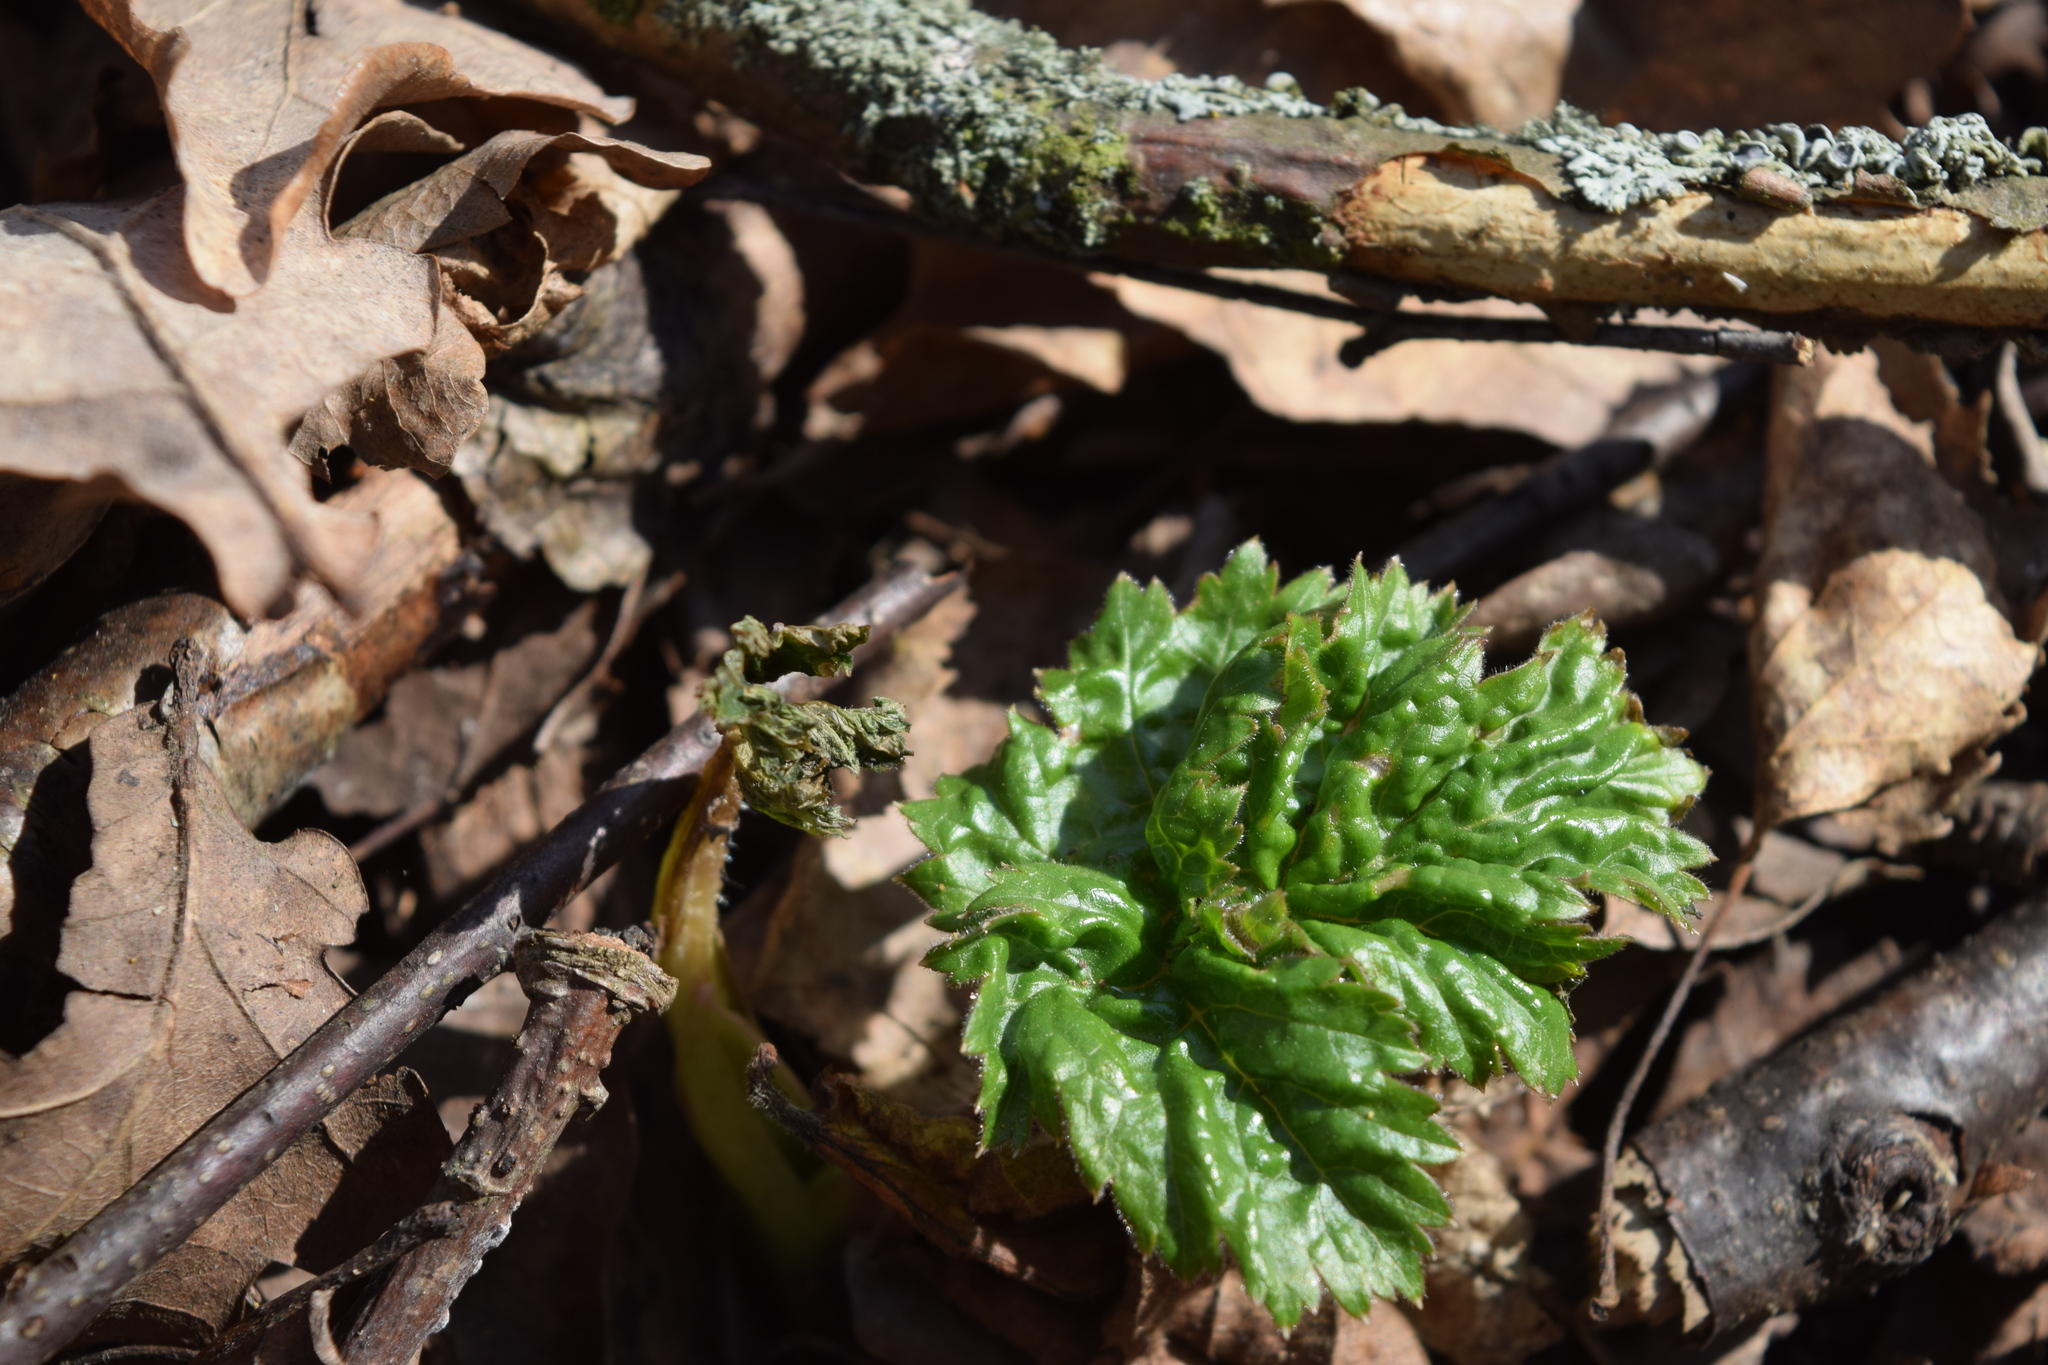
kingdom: Plantae
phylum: Tracheophyta
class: Magnoliopsida
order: Apiales
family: Apiaceae
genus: Heracleum
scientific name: Heracleum sosnowskyi
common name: Sosnowsky's hogweed
